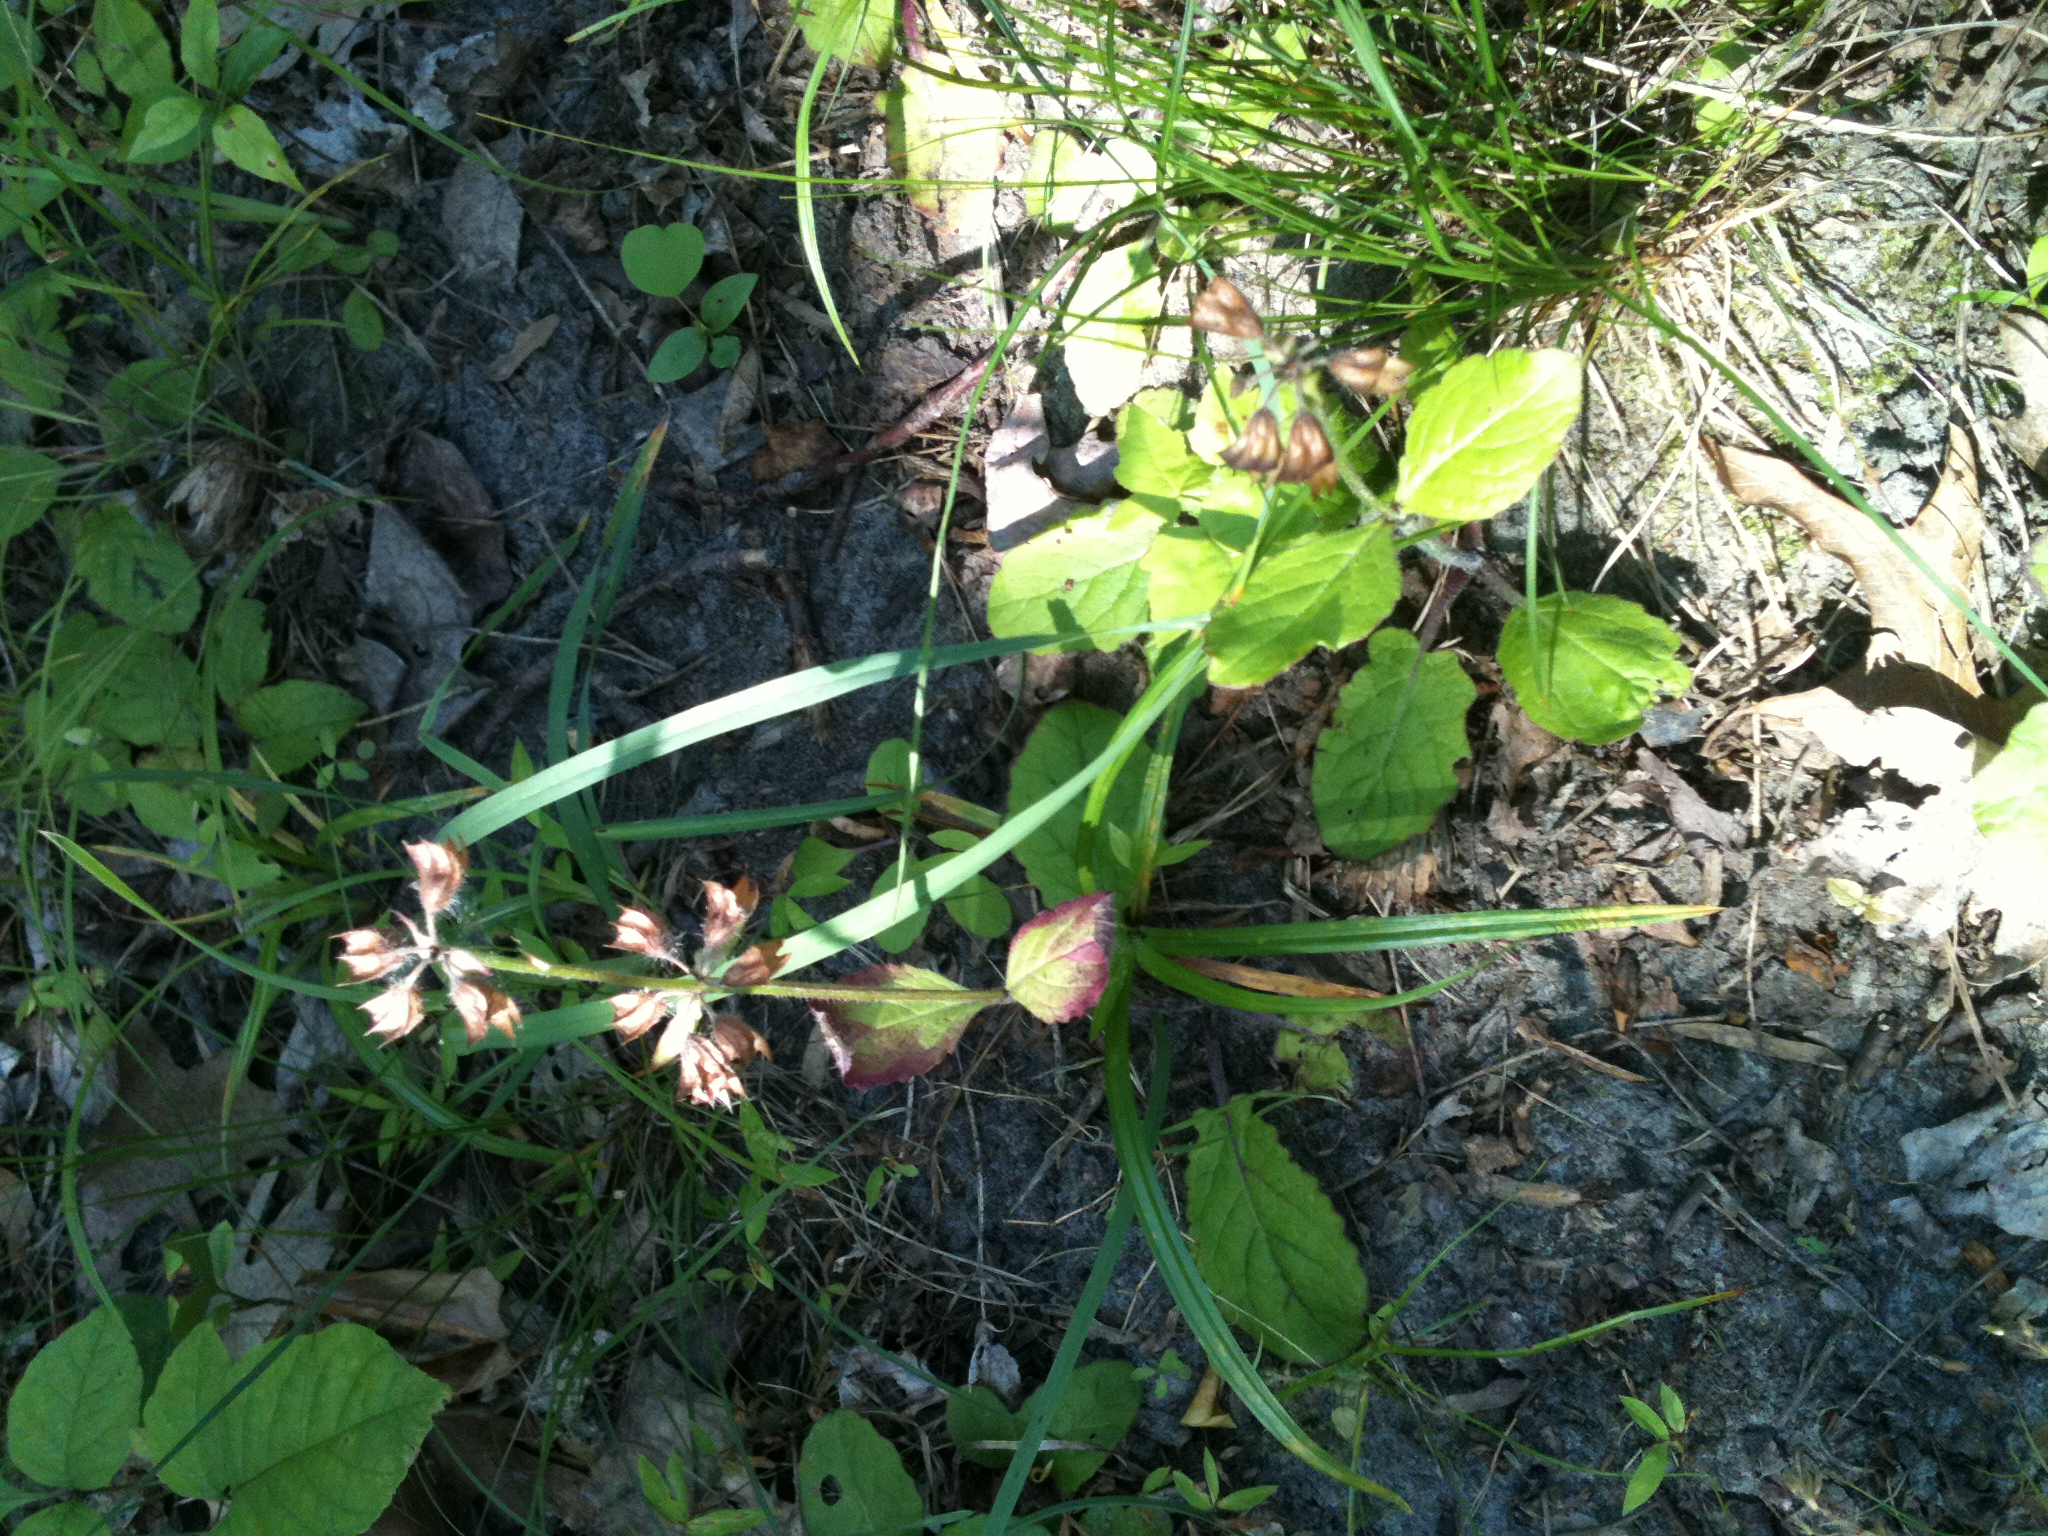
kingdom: Plantae
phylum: Tracheophyta
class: Magnoliopsida
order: Lamiales
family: Lamiaceae
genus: Salvia
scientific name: Salvia lyrata
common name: Cancerweed
